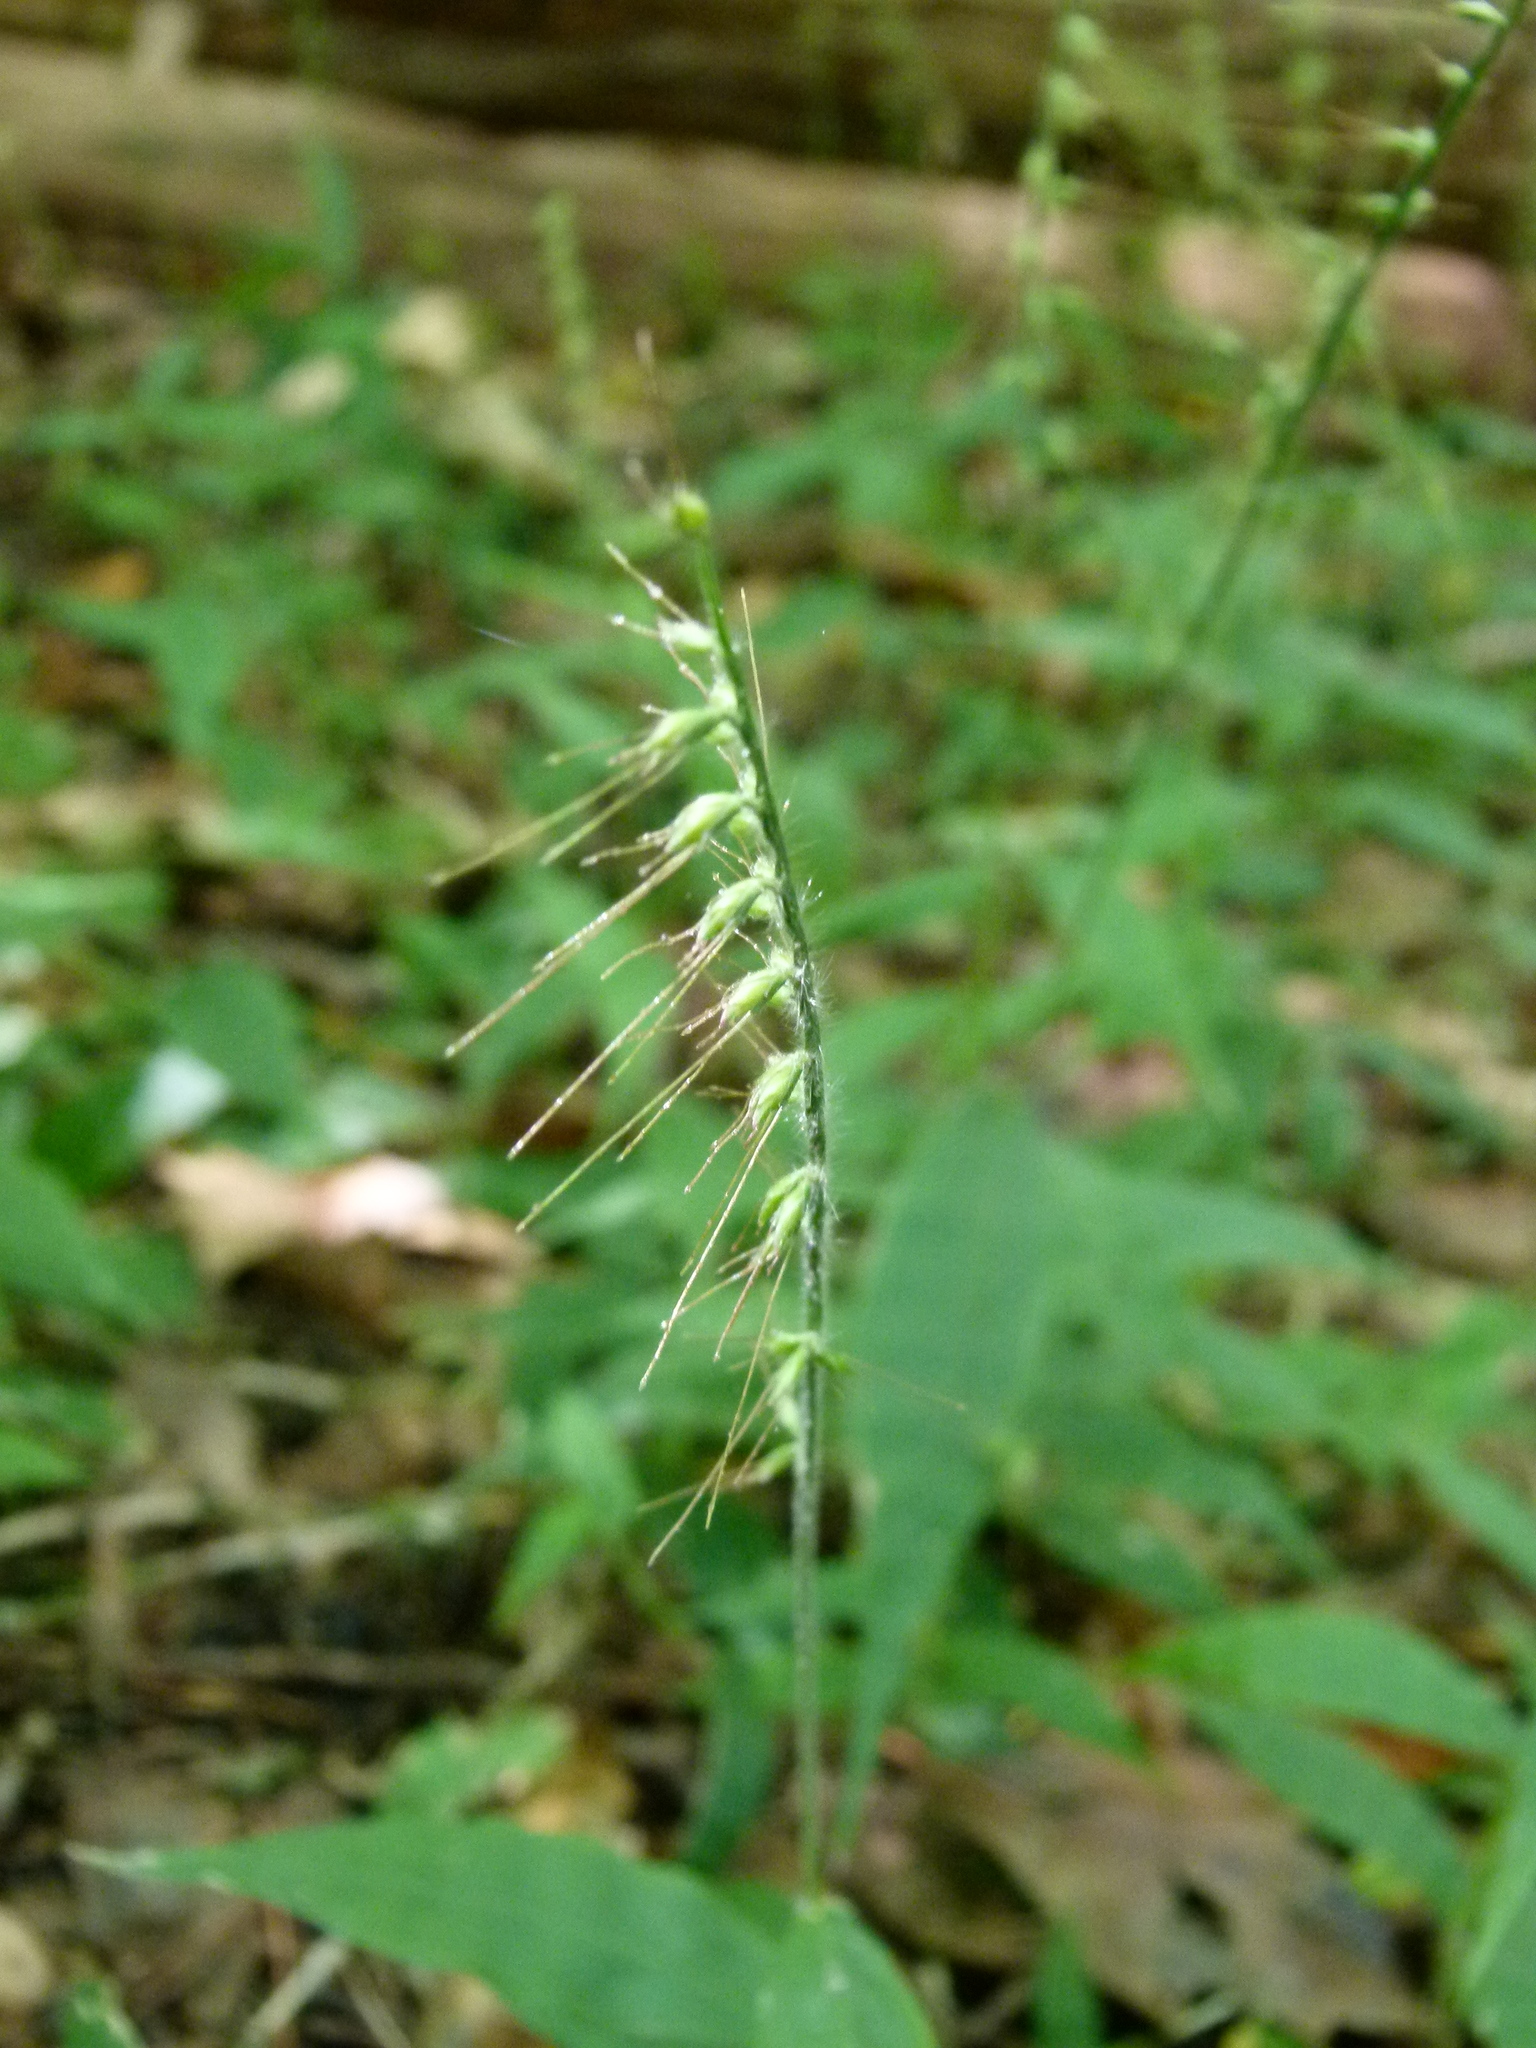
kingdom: Plantae
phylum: Tracheophyta
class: Liliopsida
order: Poales
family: Poaceae
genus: Oplismenus
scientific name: Oplismenus undulatifolius
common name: Wavyleaf basketgrass
